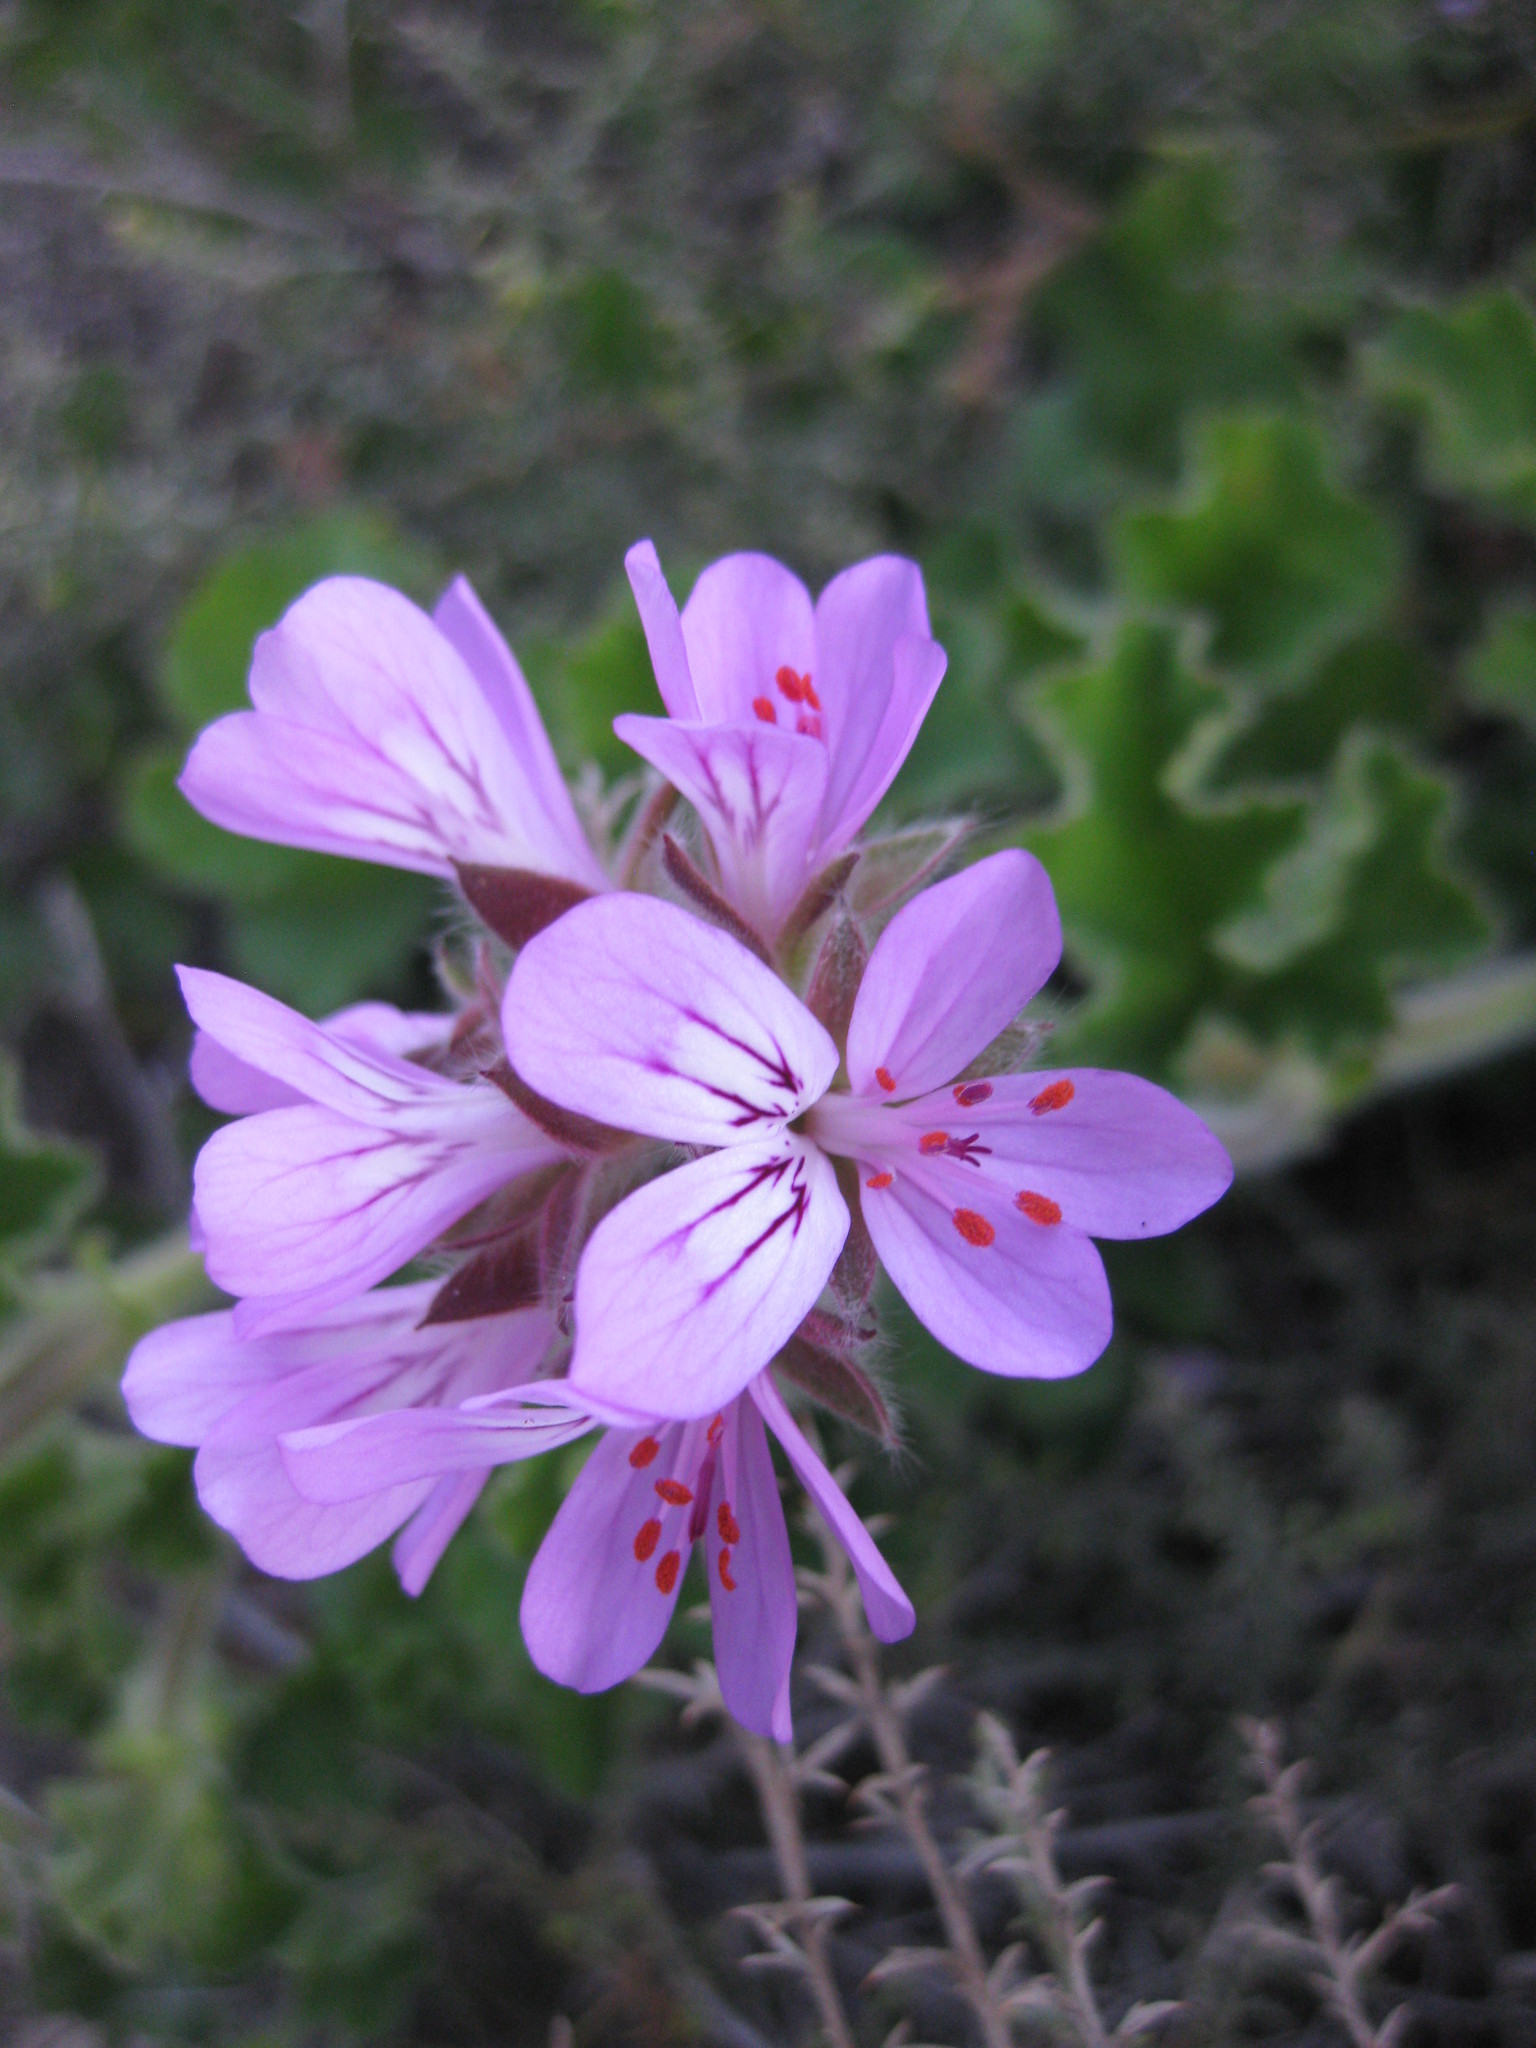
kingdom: Plantae
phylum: Tracheophyta
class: Magnoliopsida
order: Geraniales
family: Geraniaceae
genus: Pelargonium
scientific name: Pelargonium capitatum
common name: Rose scented geranium
